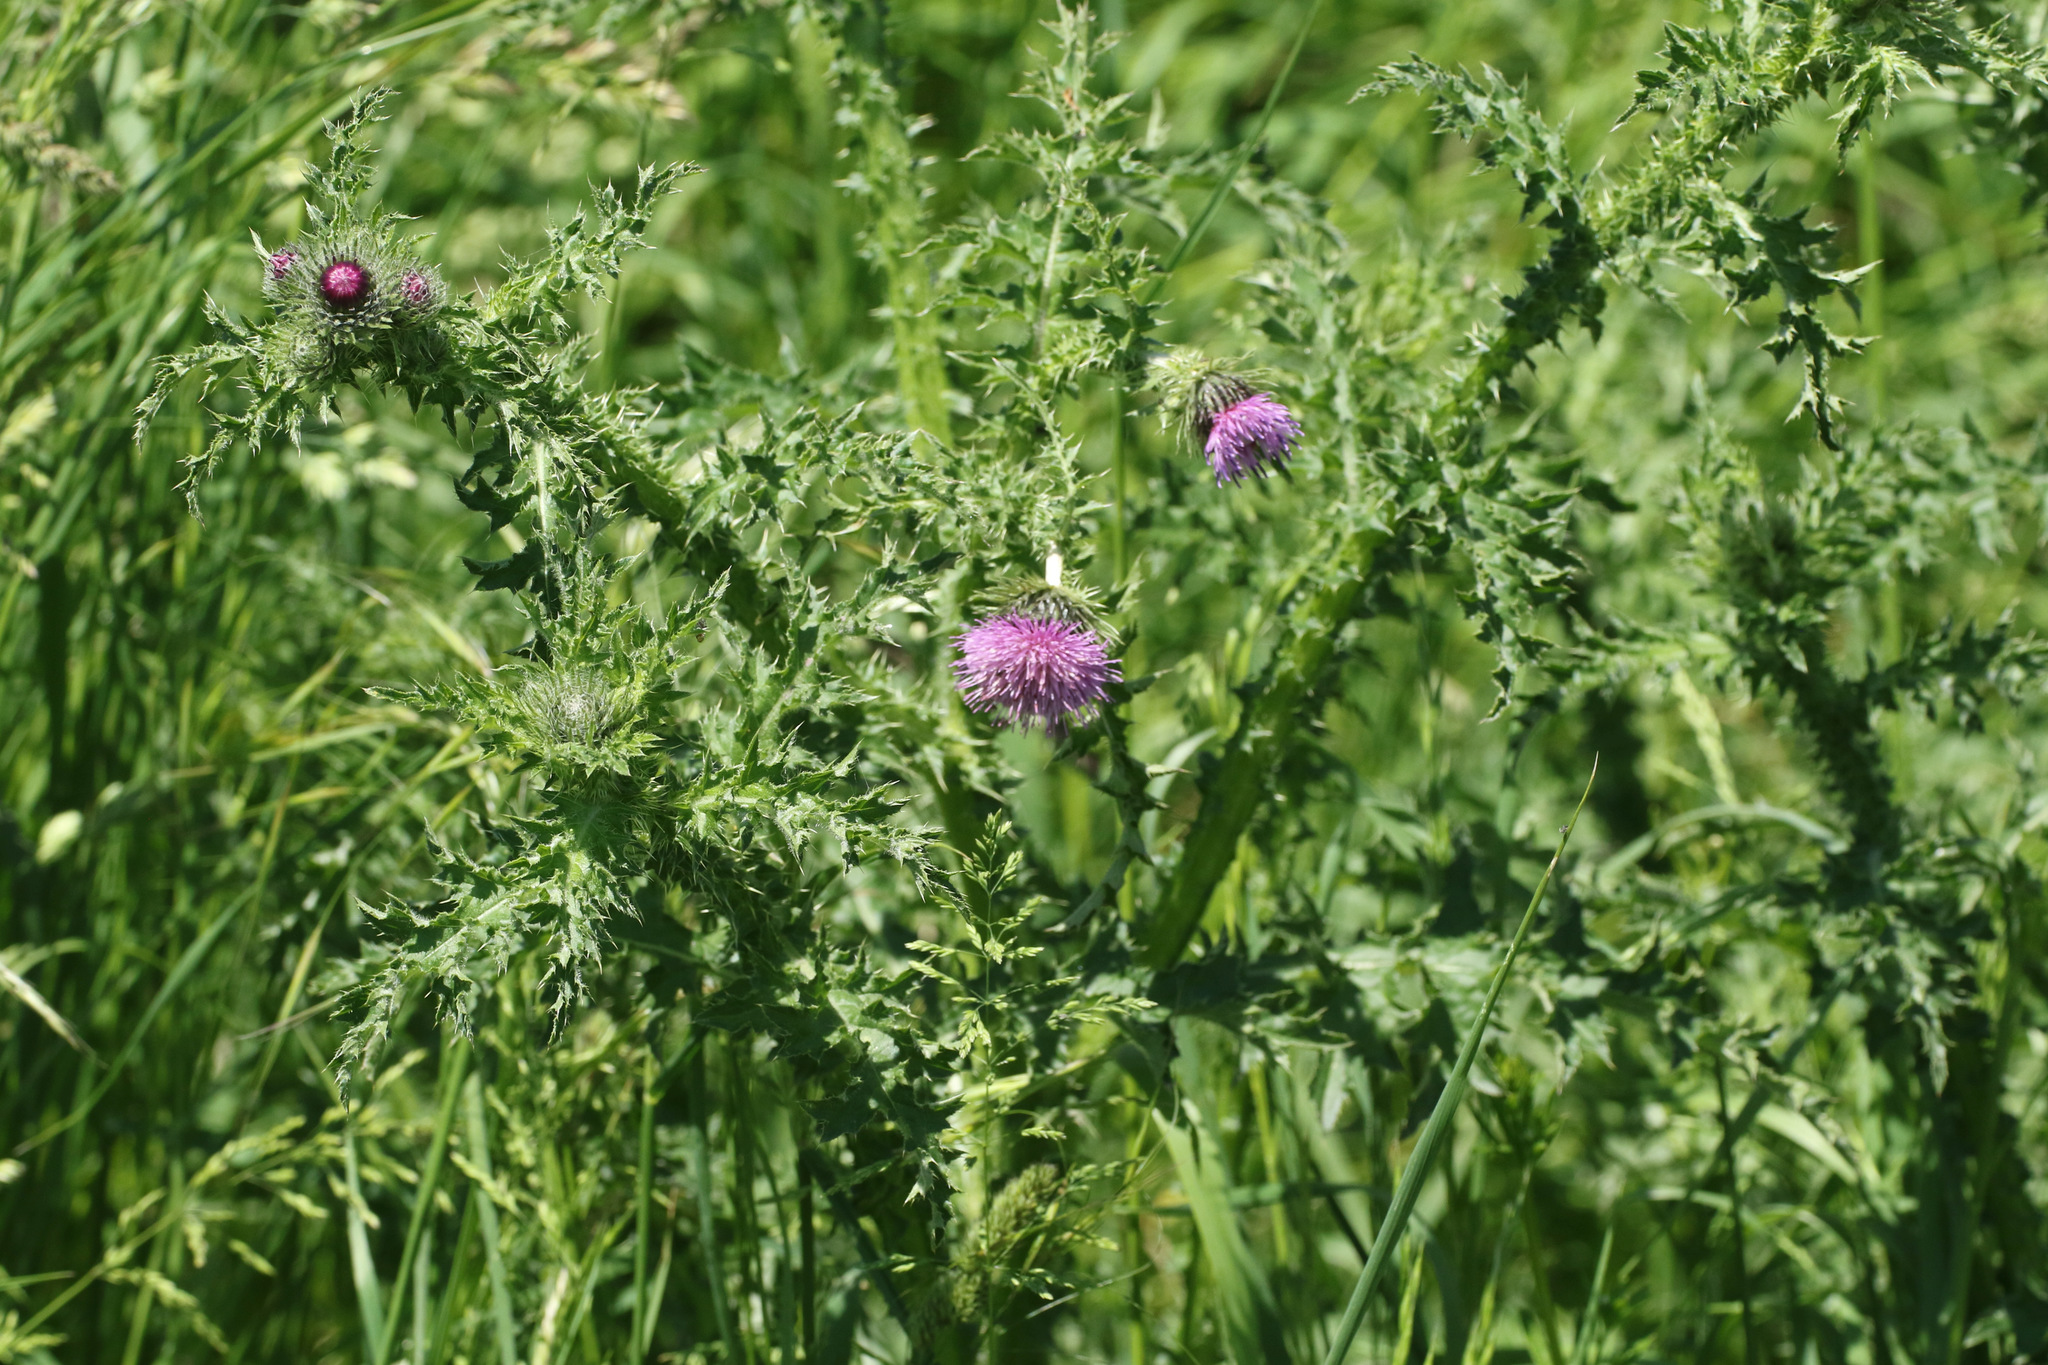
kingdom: Plantae
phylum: Tracheophyta
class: Magnoliopsida
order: Asterales
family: Asteraceae
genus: Carduus
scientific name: Carduus crispus
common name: Welted thistle
